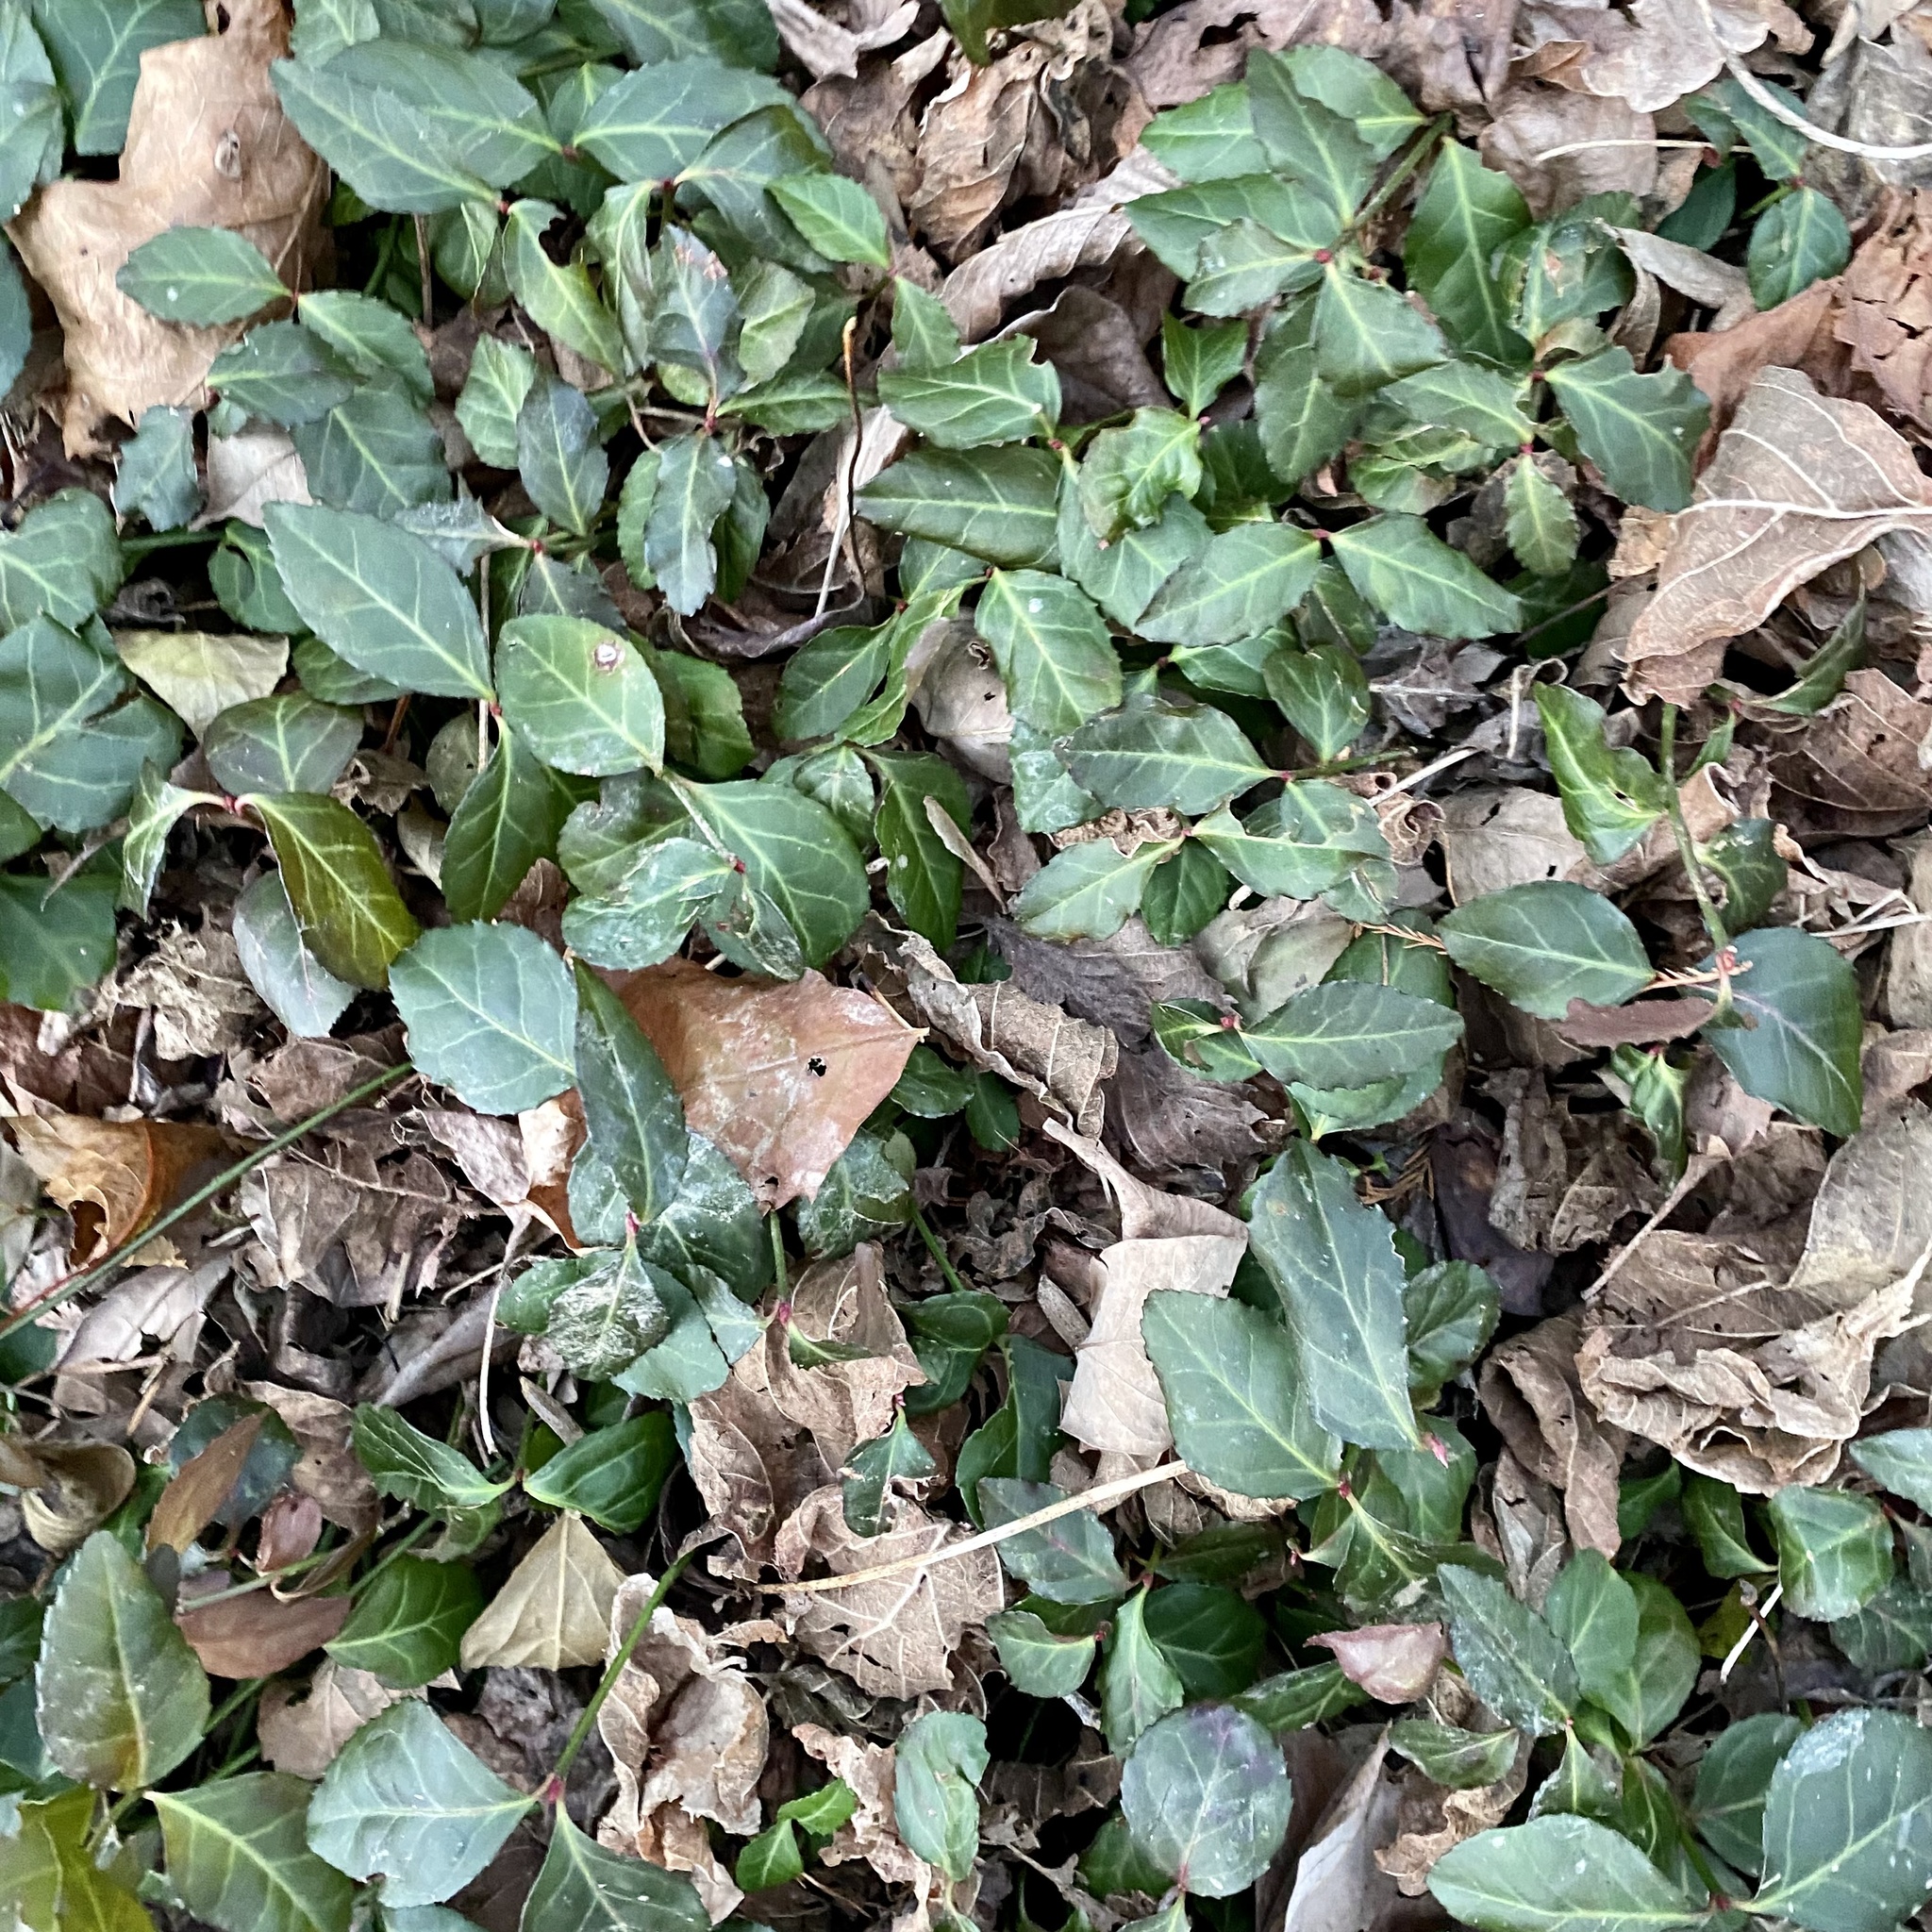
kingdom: Plantae
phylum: Tracheophyta
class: Magnoliopsida
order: Celastrales
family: Celastraceae
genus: Euonymus
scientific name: Euonymus fortunei
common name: Climbing euonymus
